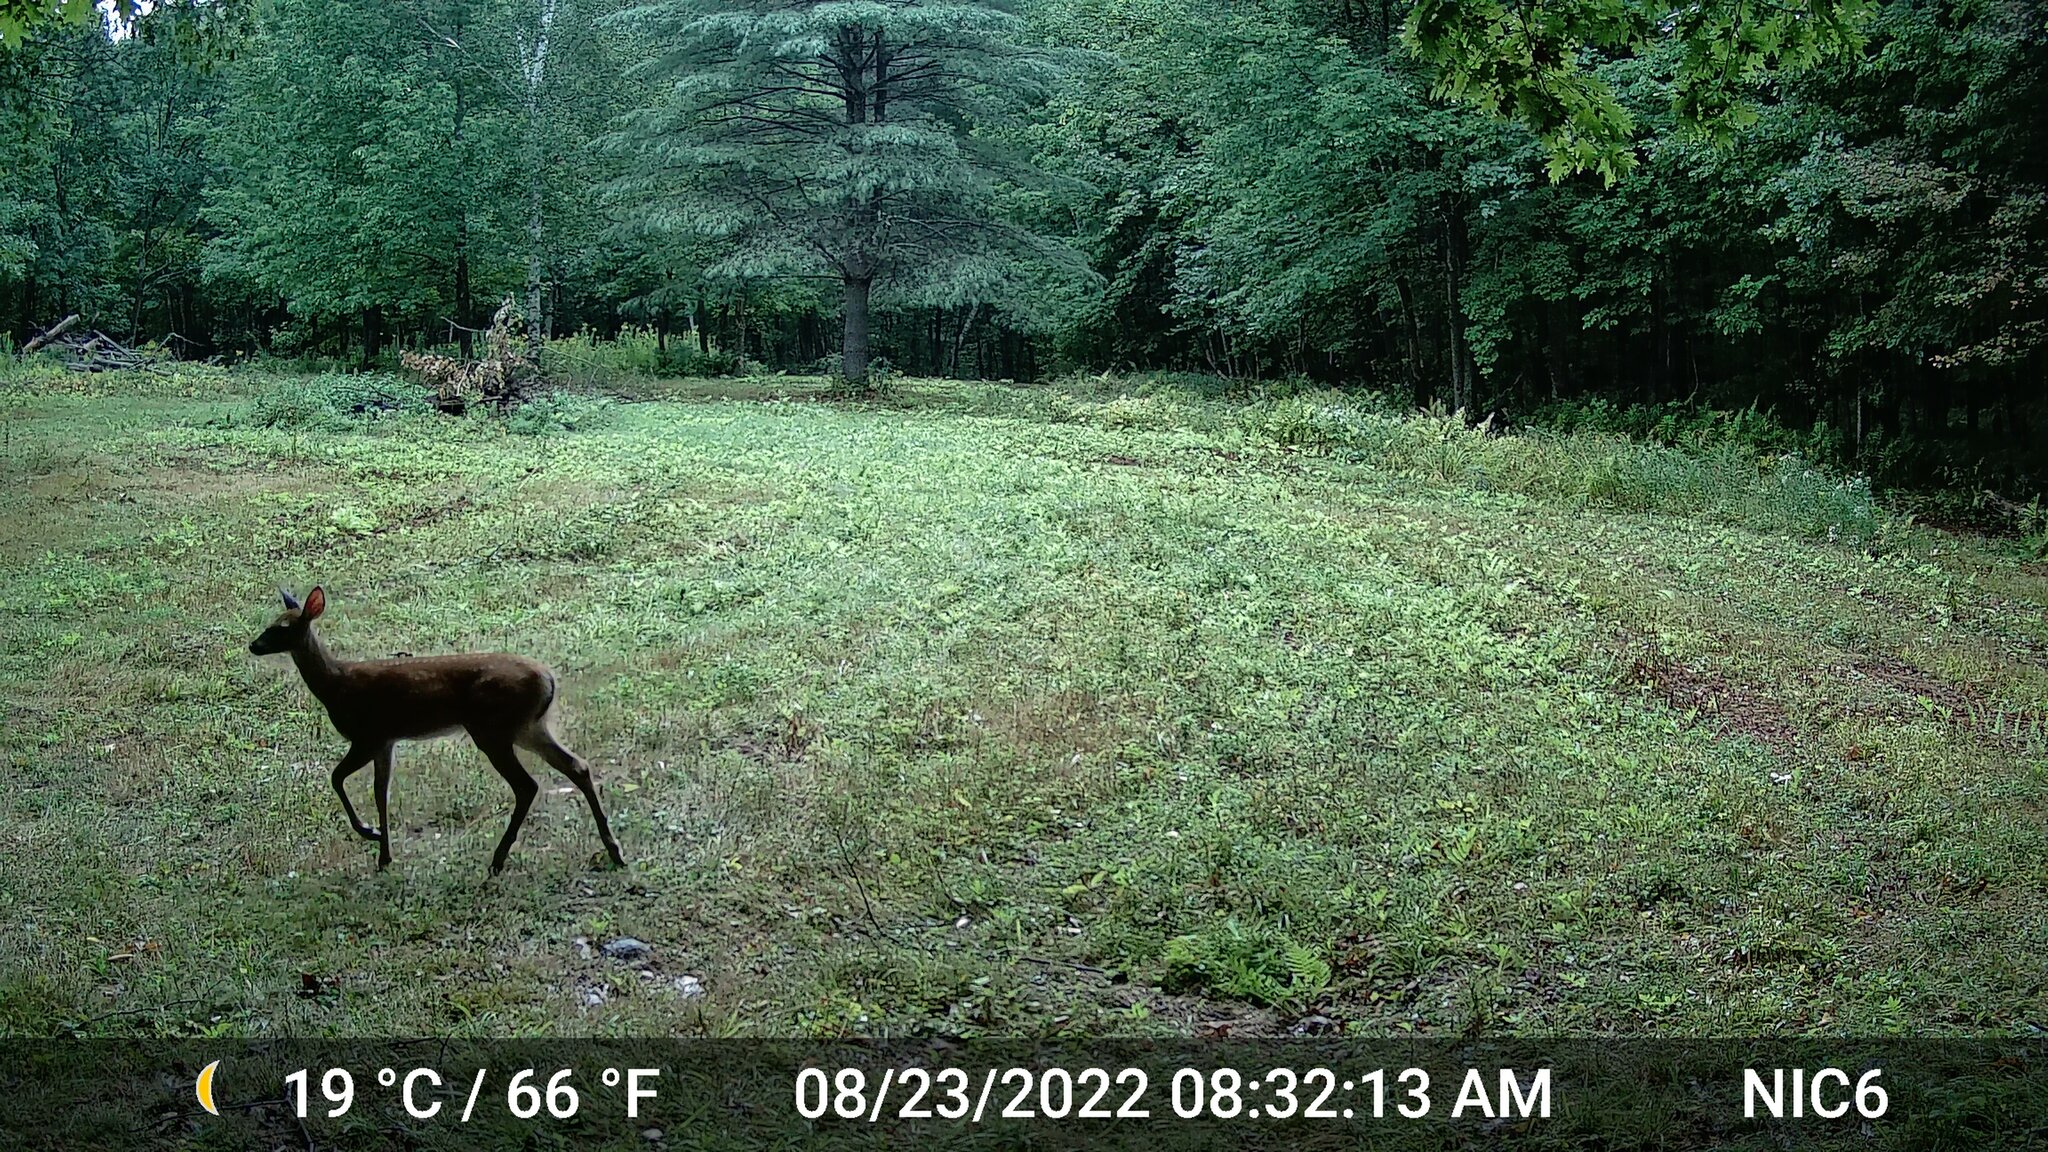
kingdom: Animalia
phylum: Chordata
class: Mammalia
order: Artiodactyla
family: Cervidae
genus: Odocoileus
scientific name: Odocoileus virginianus
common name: White-tailed deer
